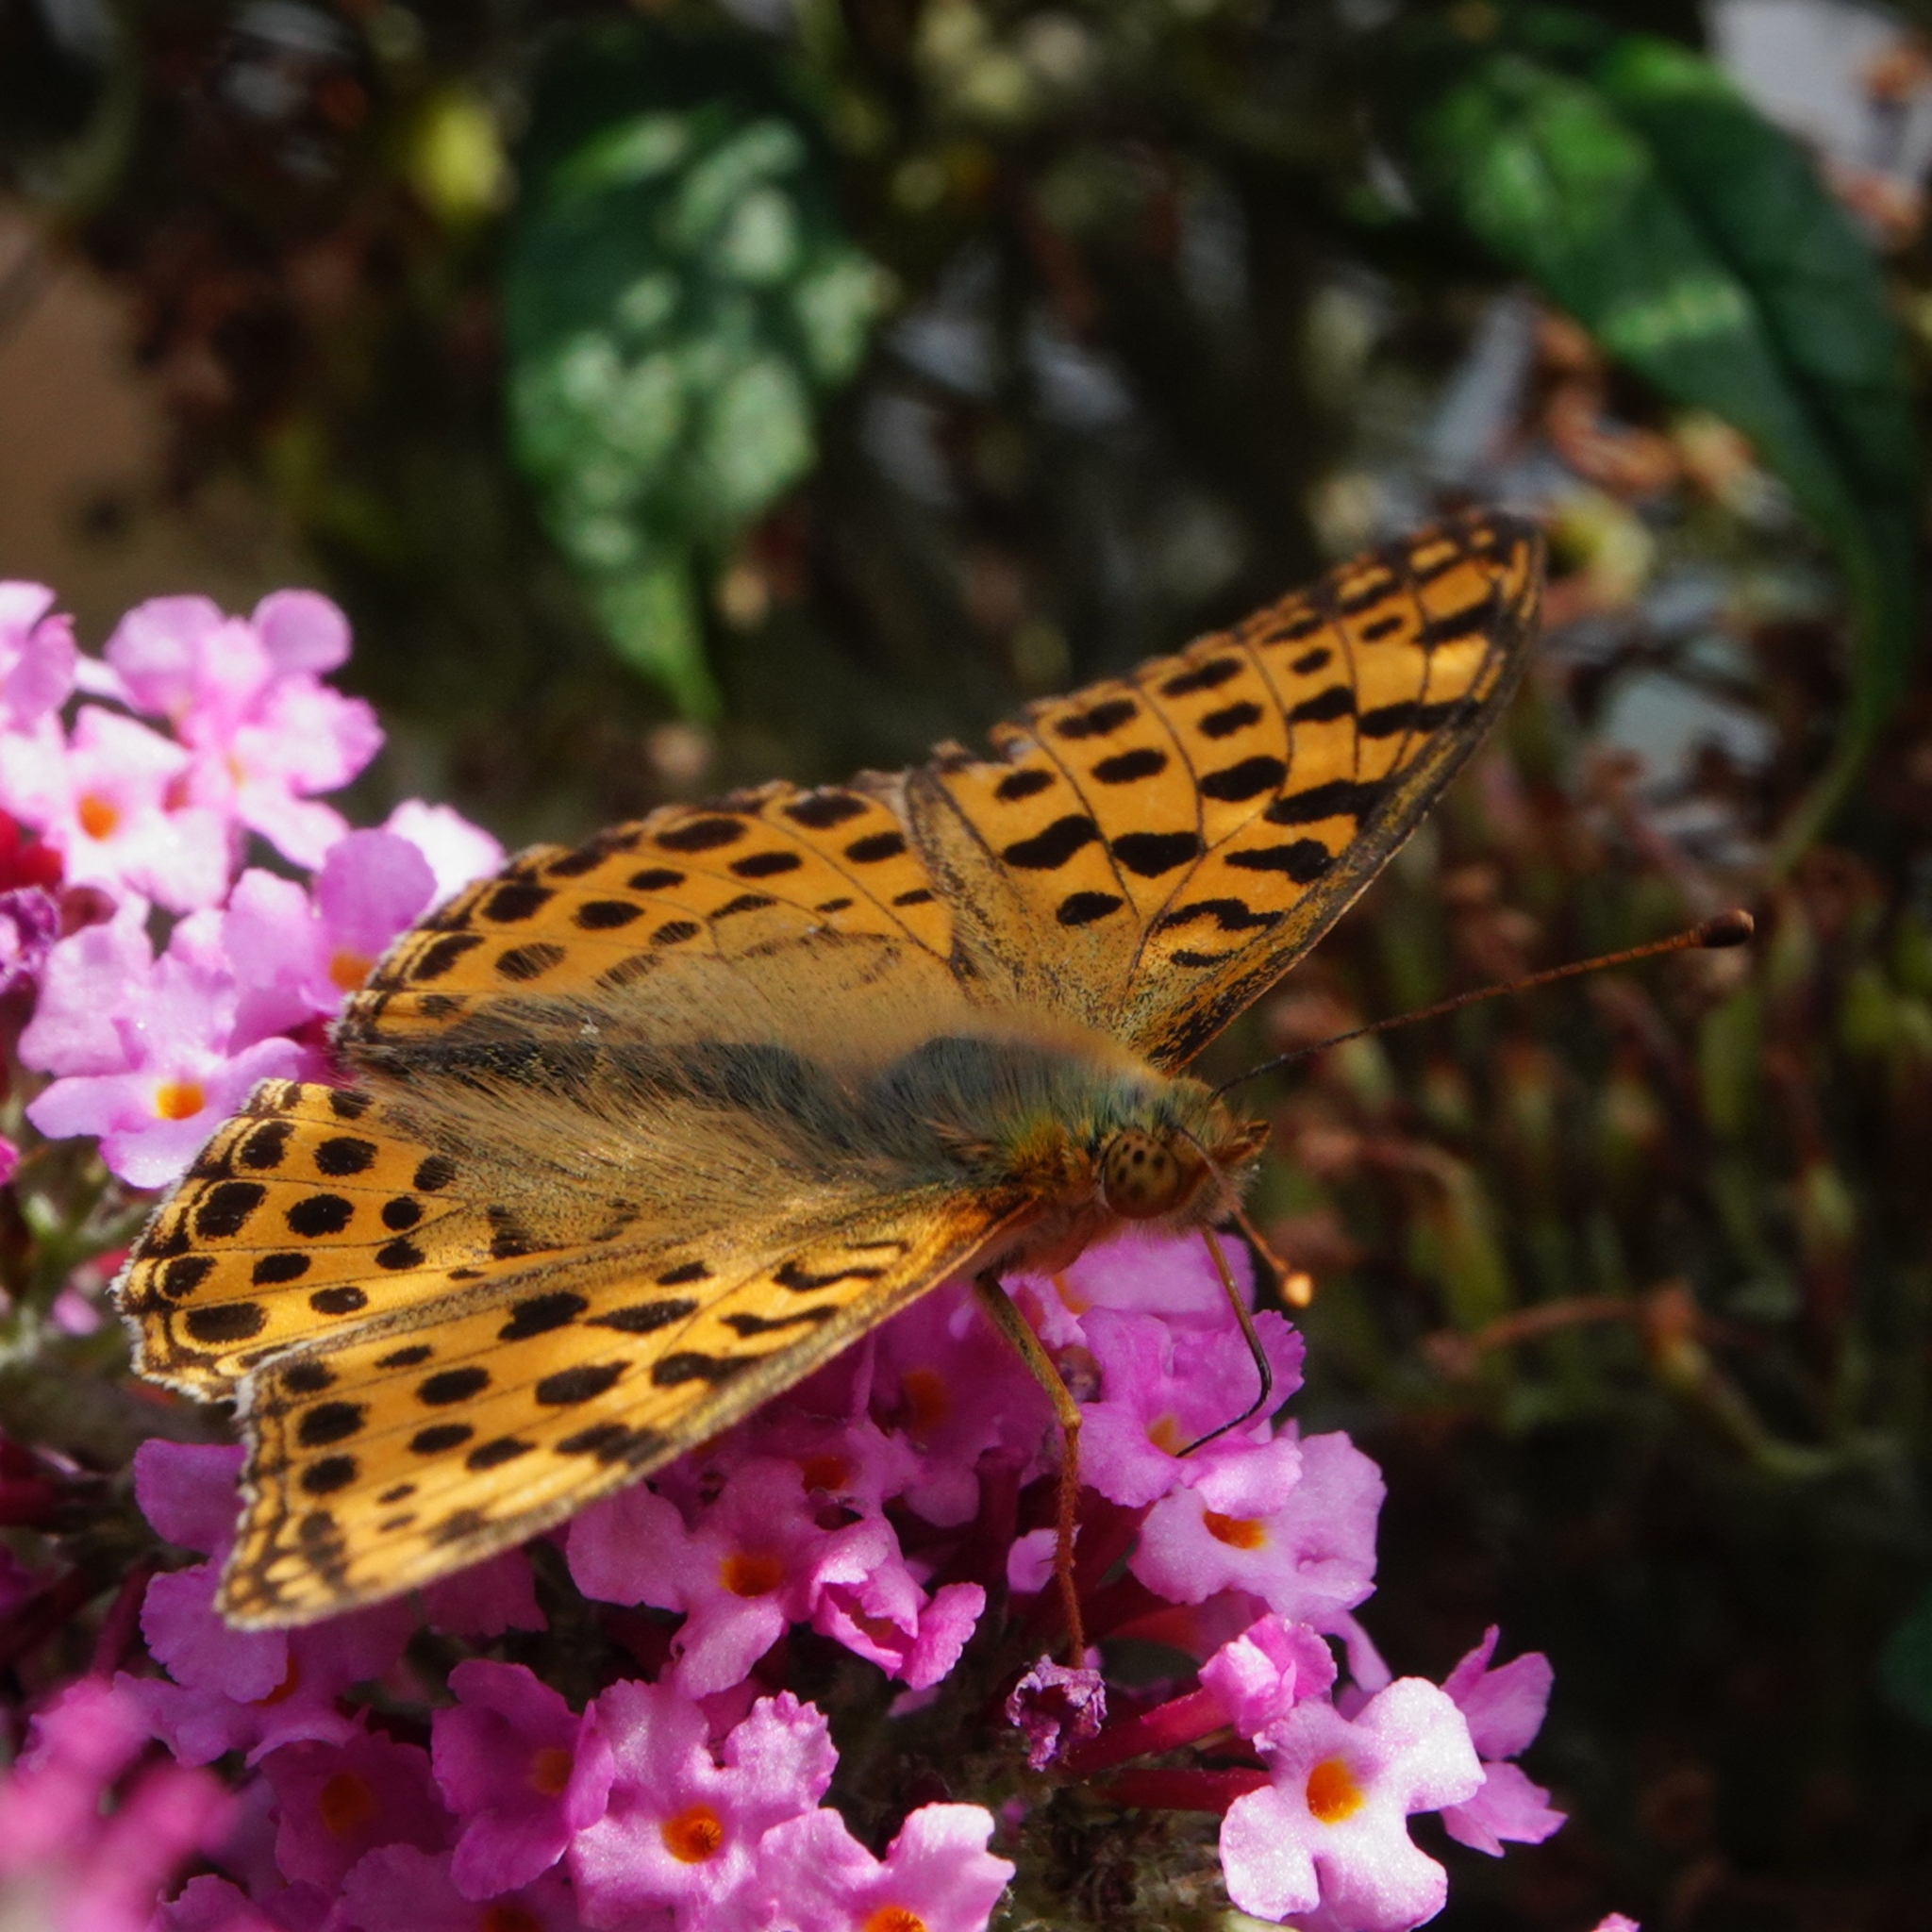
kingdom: Animalia
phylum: Arthropoda
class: Insecta
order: Lepidoptera
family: Nymphalidae
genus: Issoria
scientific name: Issoria lathonia
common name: Queen of spain fritillary
